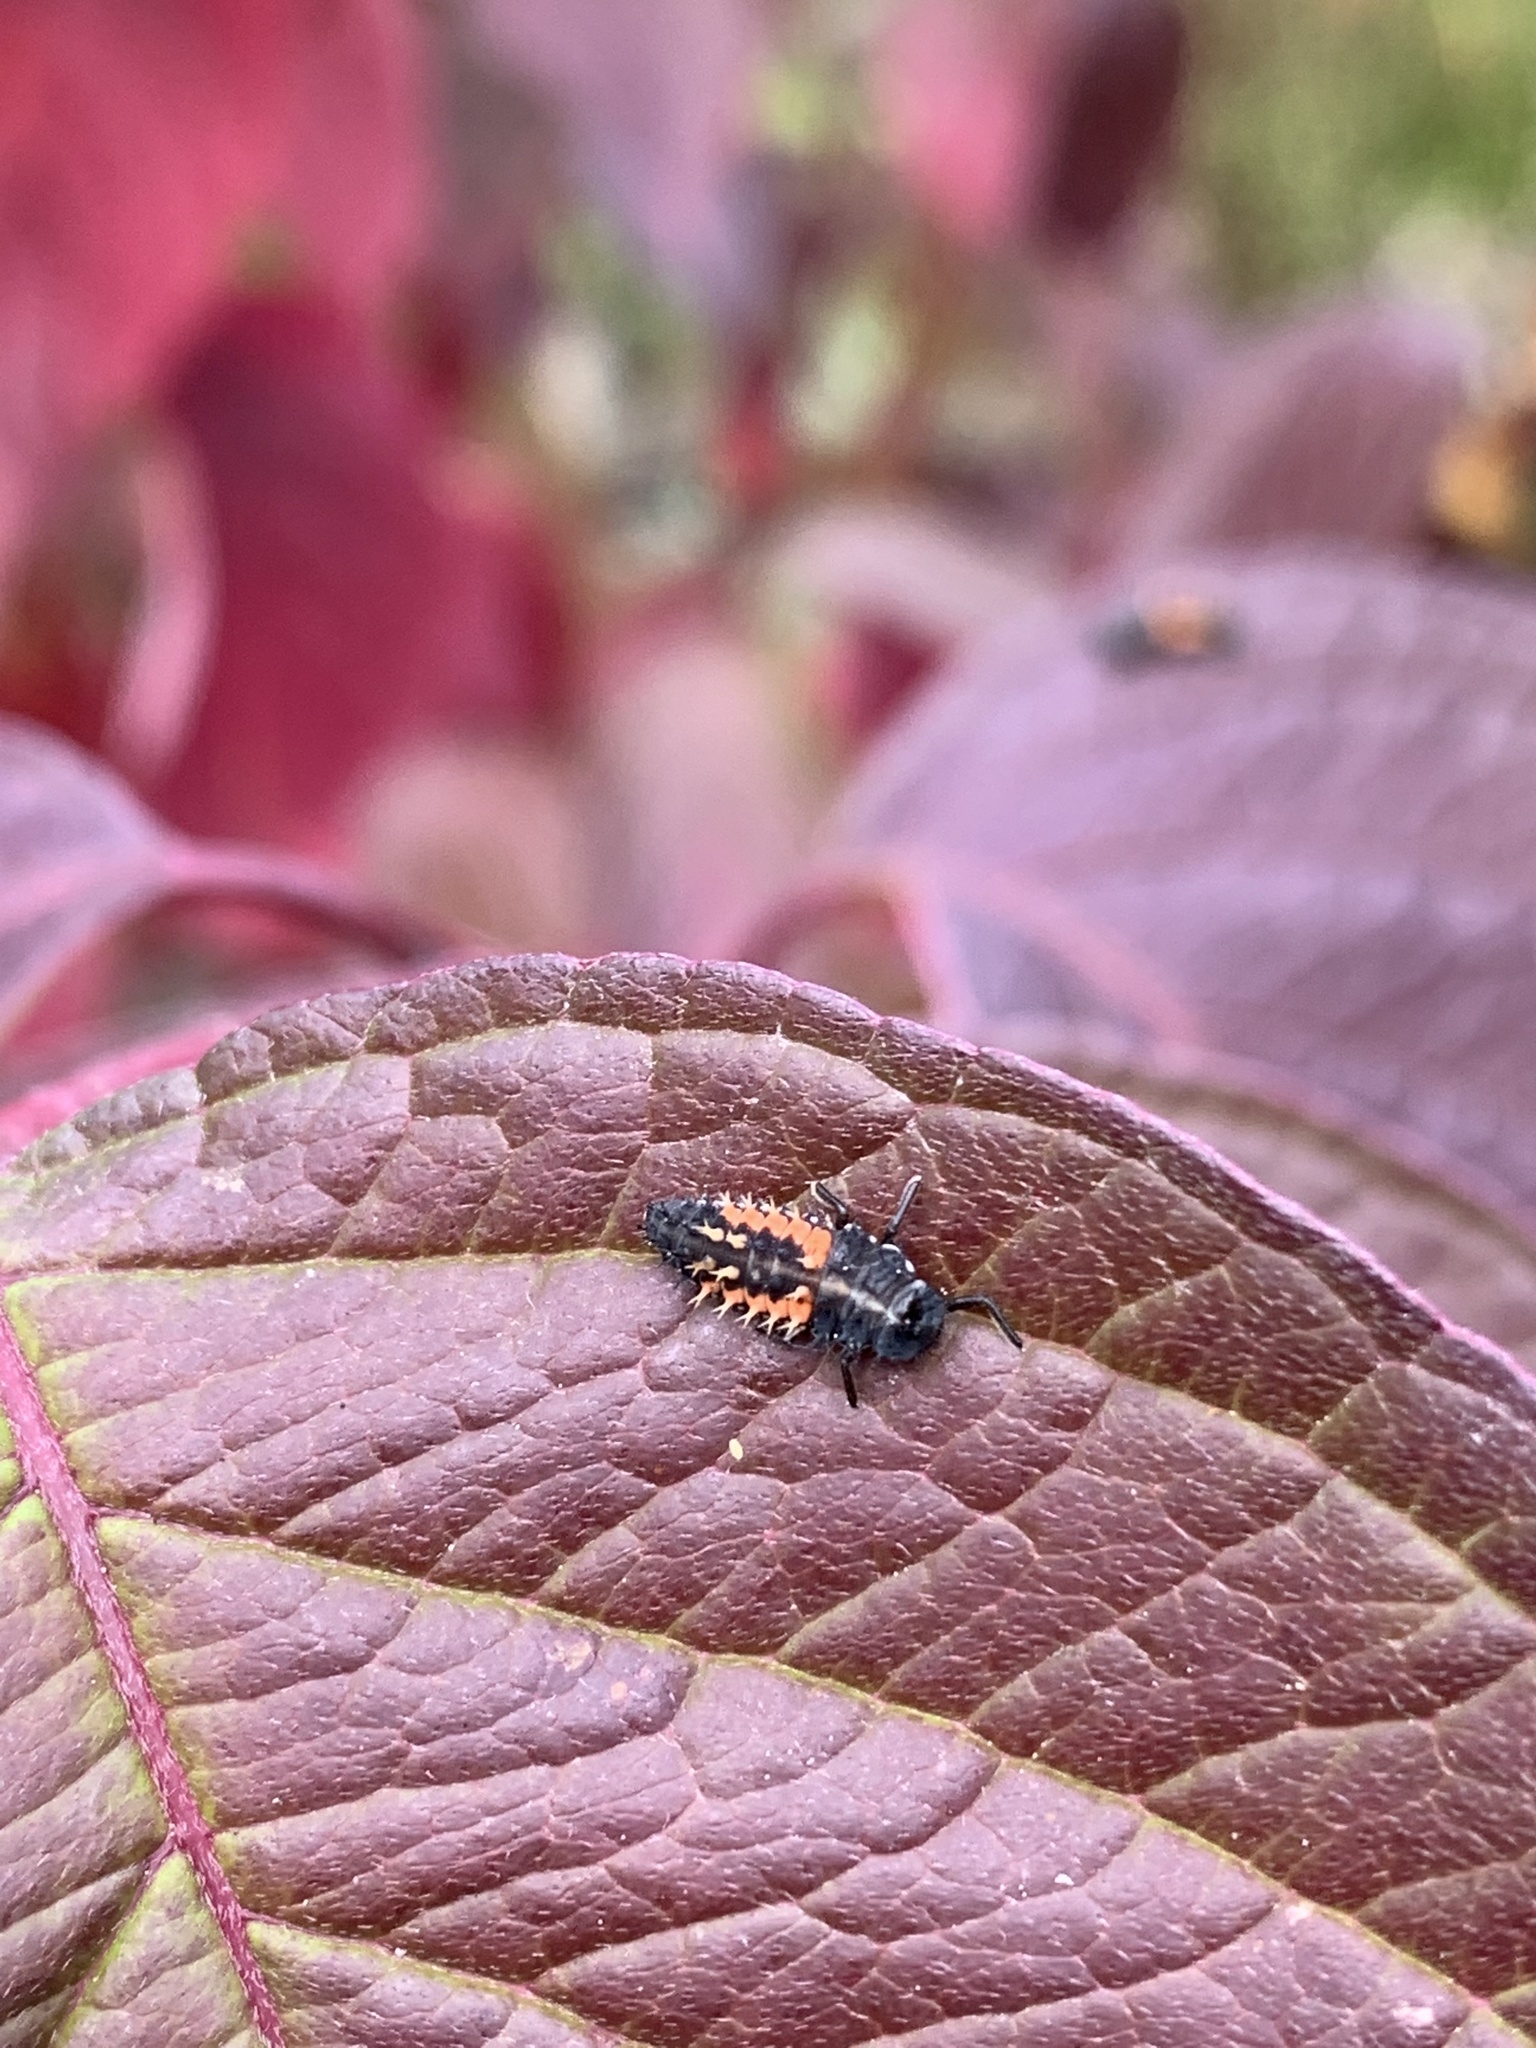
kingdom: Animalia
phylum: Arthropoda
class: Insecta
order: Coleoptera
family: Coccinellidae
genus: Harmonia
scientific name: Harmonia axyridis
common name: Harlequin ladybird
